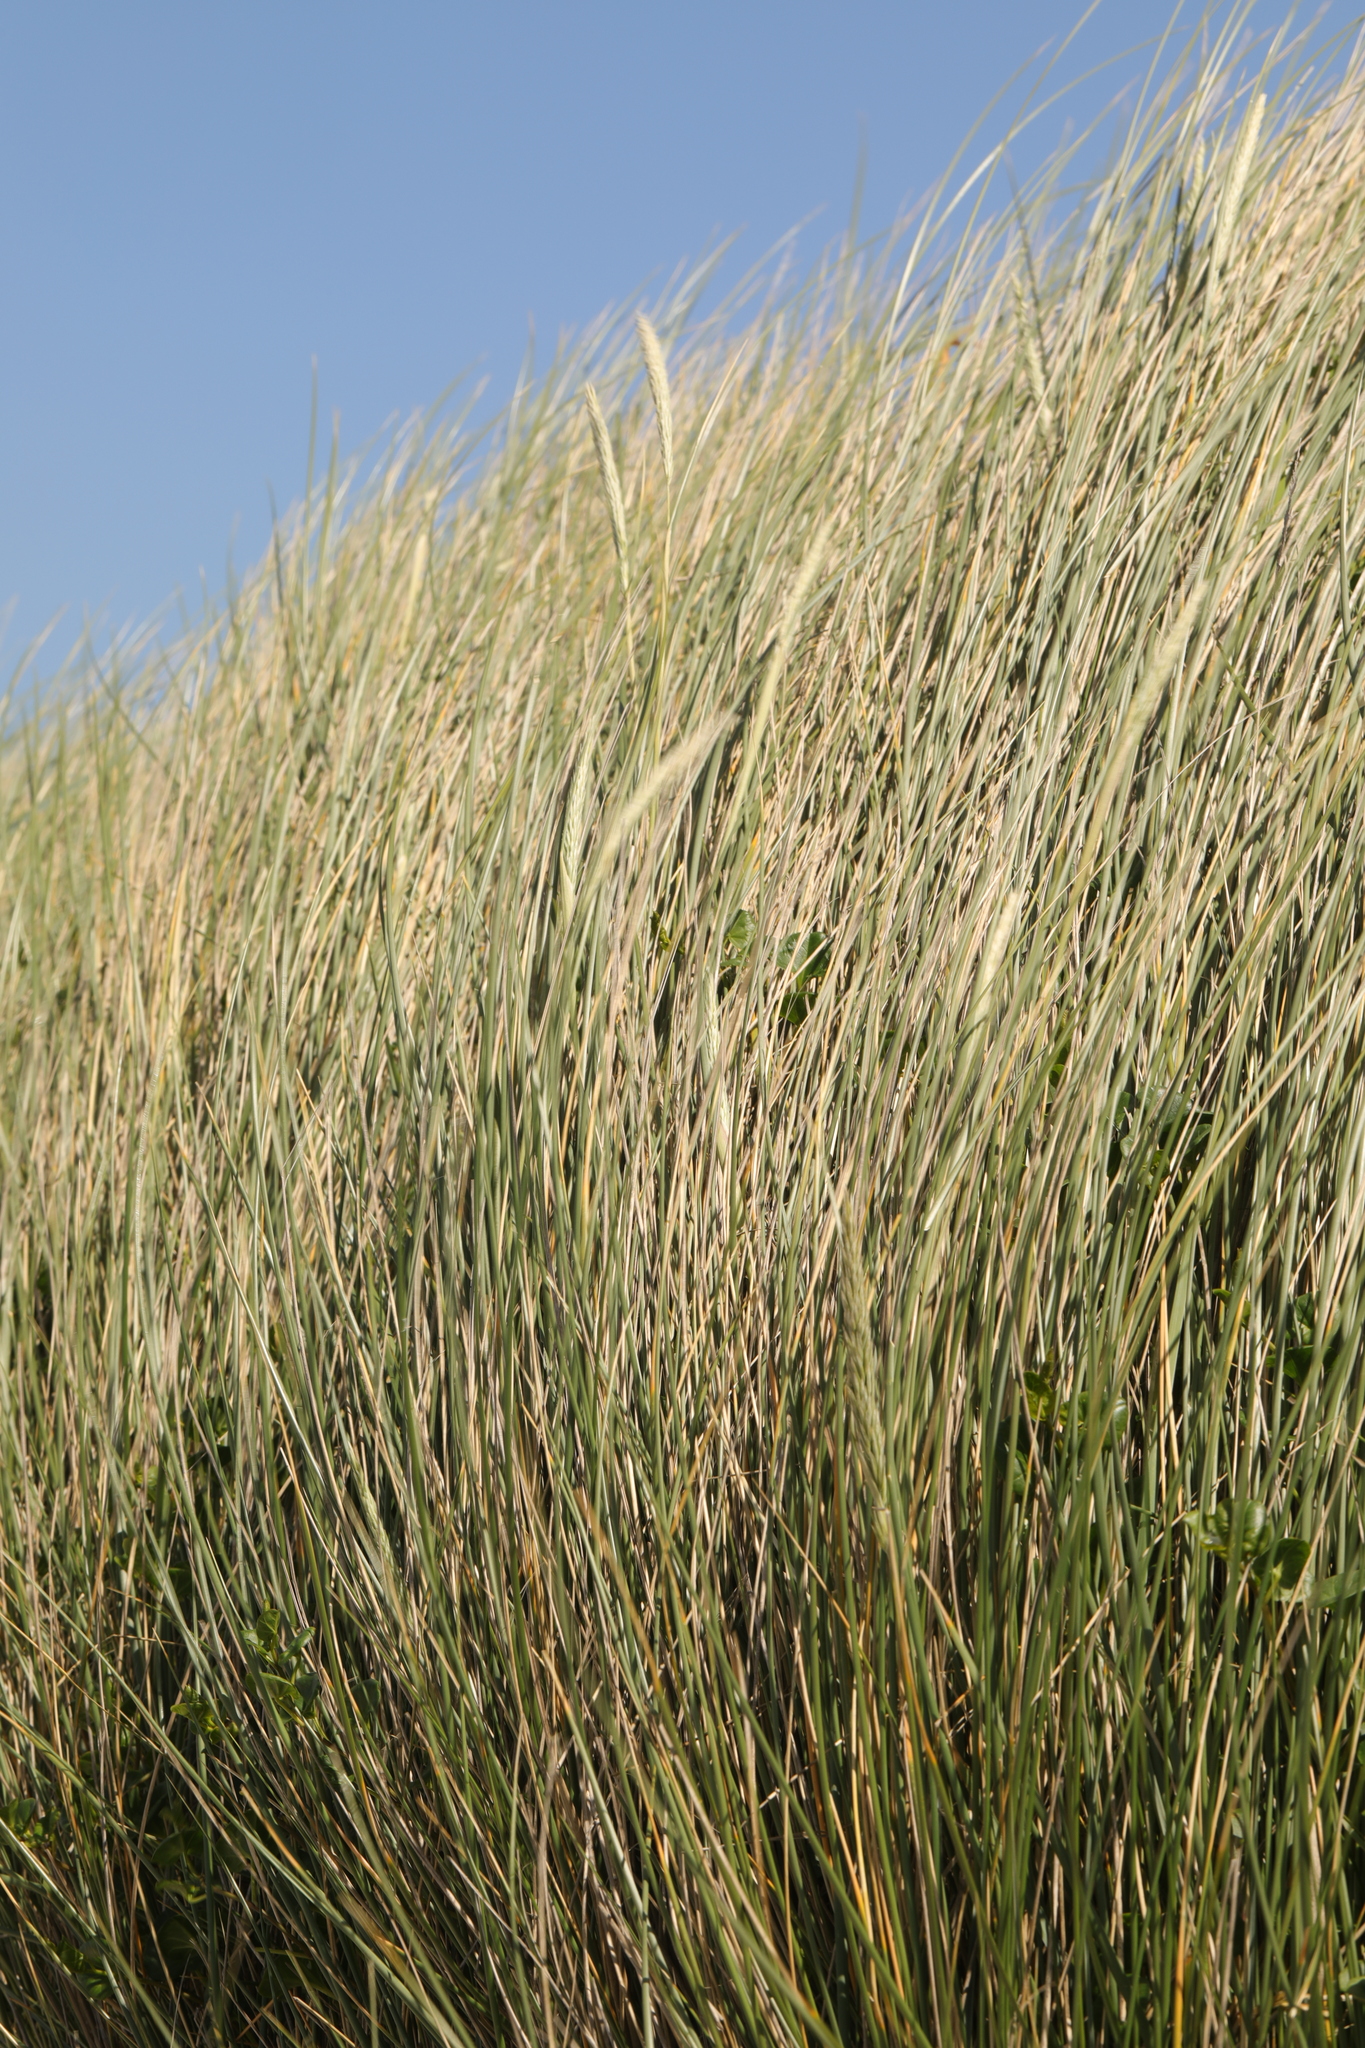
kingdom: Plantae
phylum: Tracheophyta
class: Liliopsida
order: Poales
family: Poaceae
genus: Calamagrostis
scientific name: Calamagrostis arenaria
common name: European beachgrass
